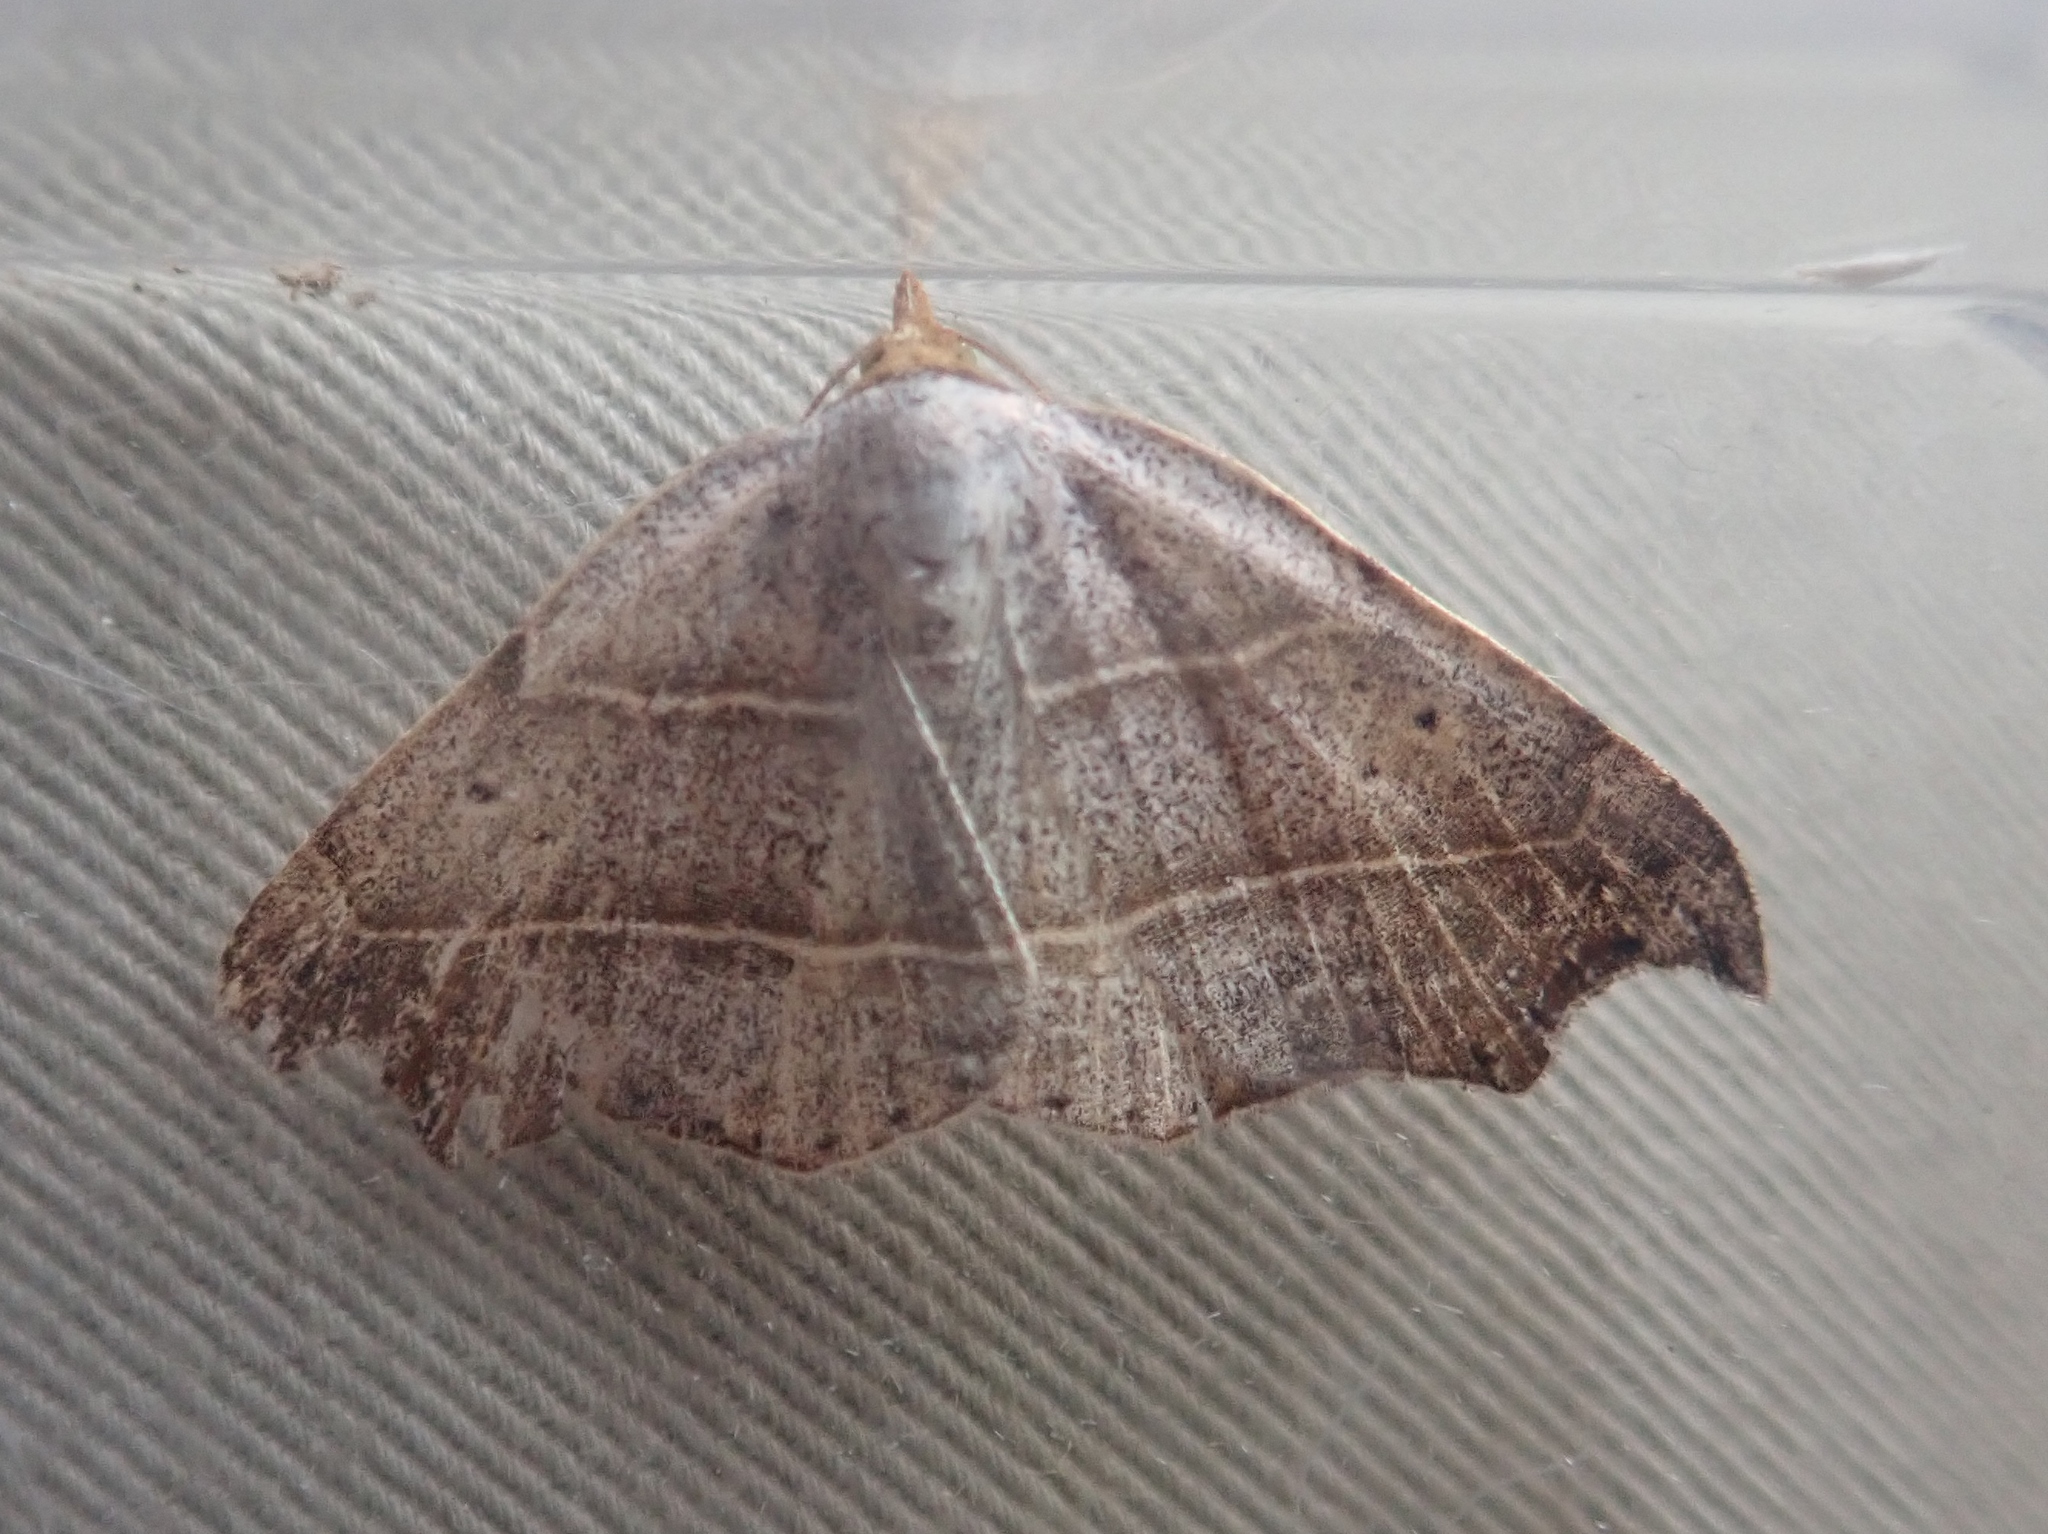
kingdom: Animalia
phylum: Arthropoda
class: Insecta
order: Lepidoptera
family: Erebidae
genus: Laspeyria
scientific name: Laspeyria flexula
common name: Beautiful hook-tip
